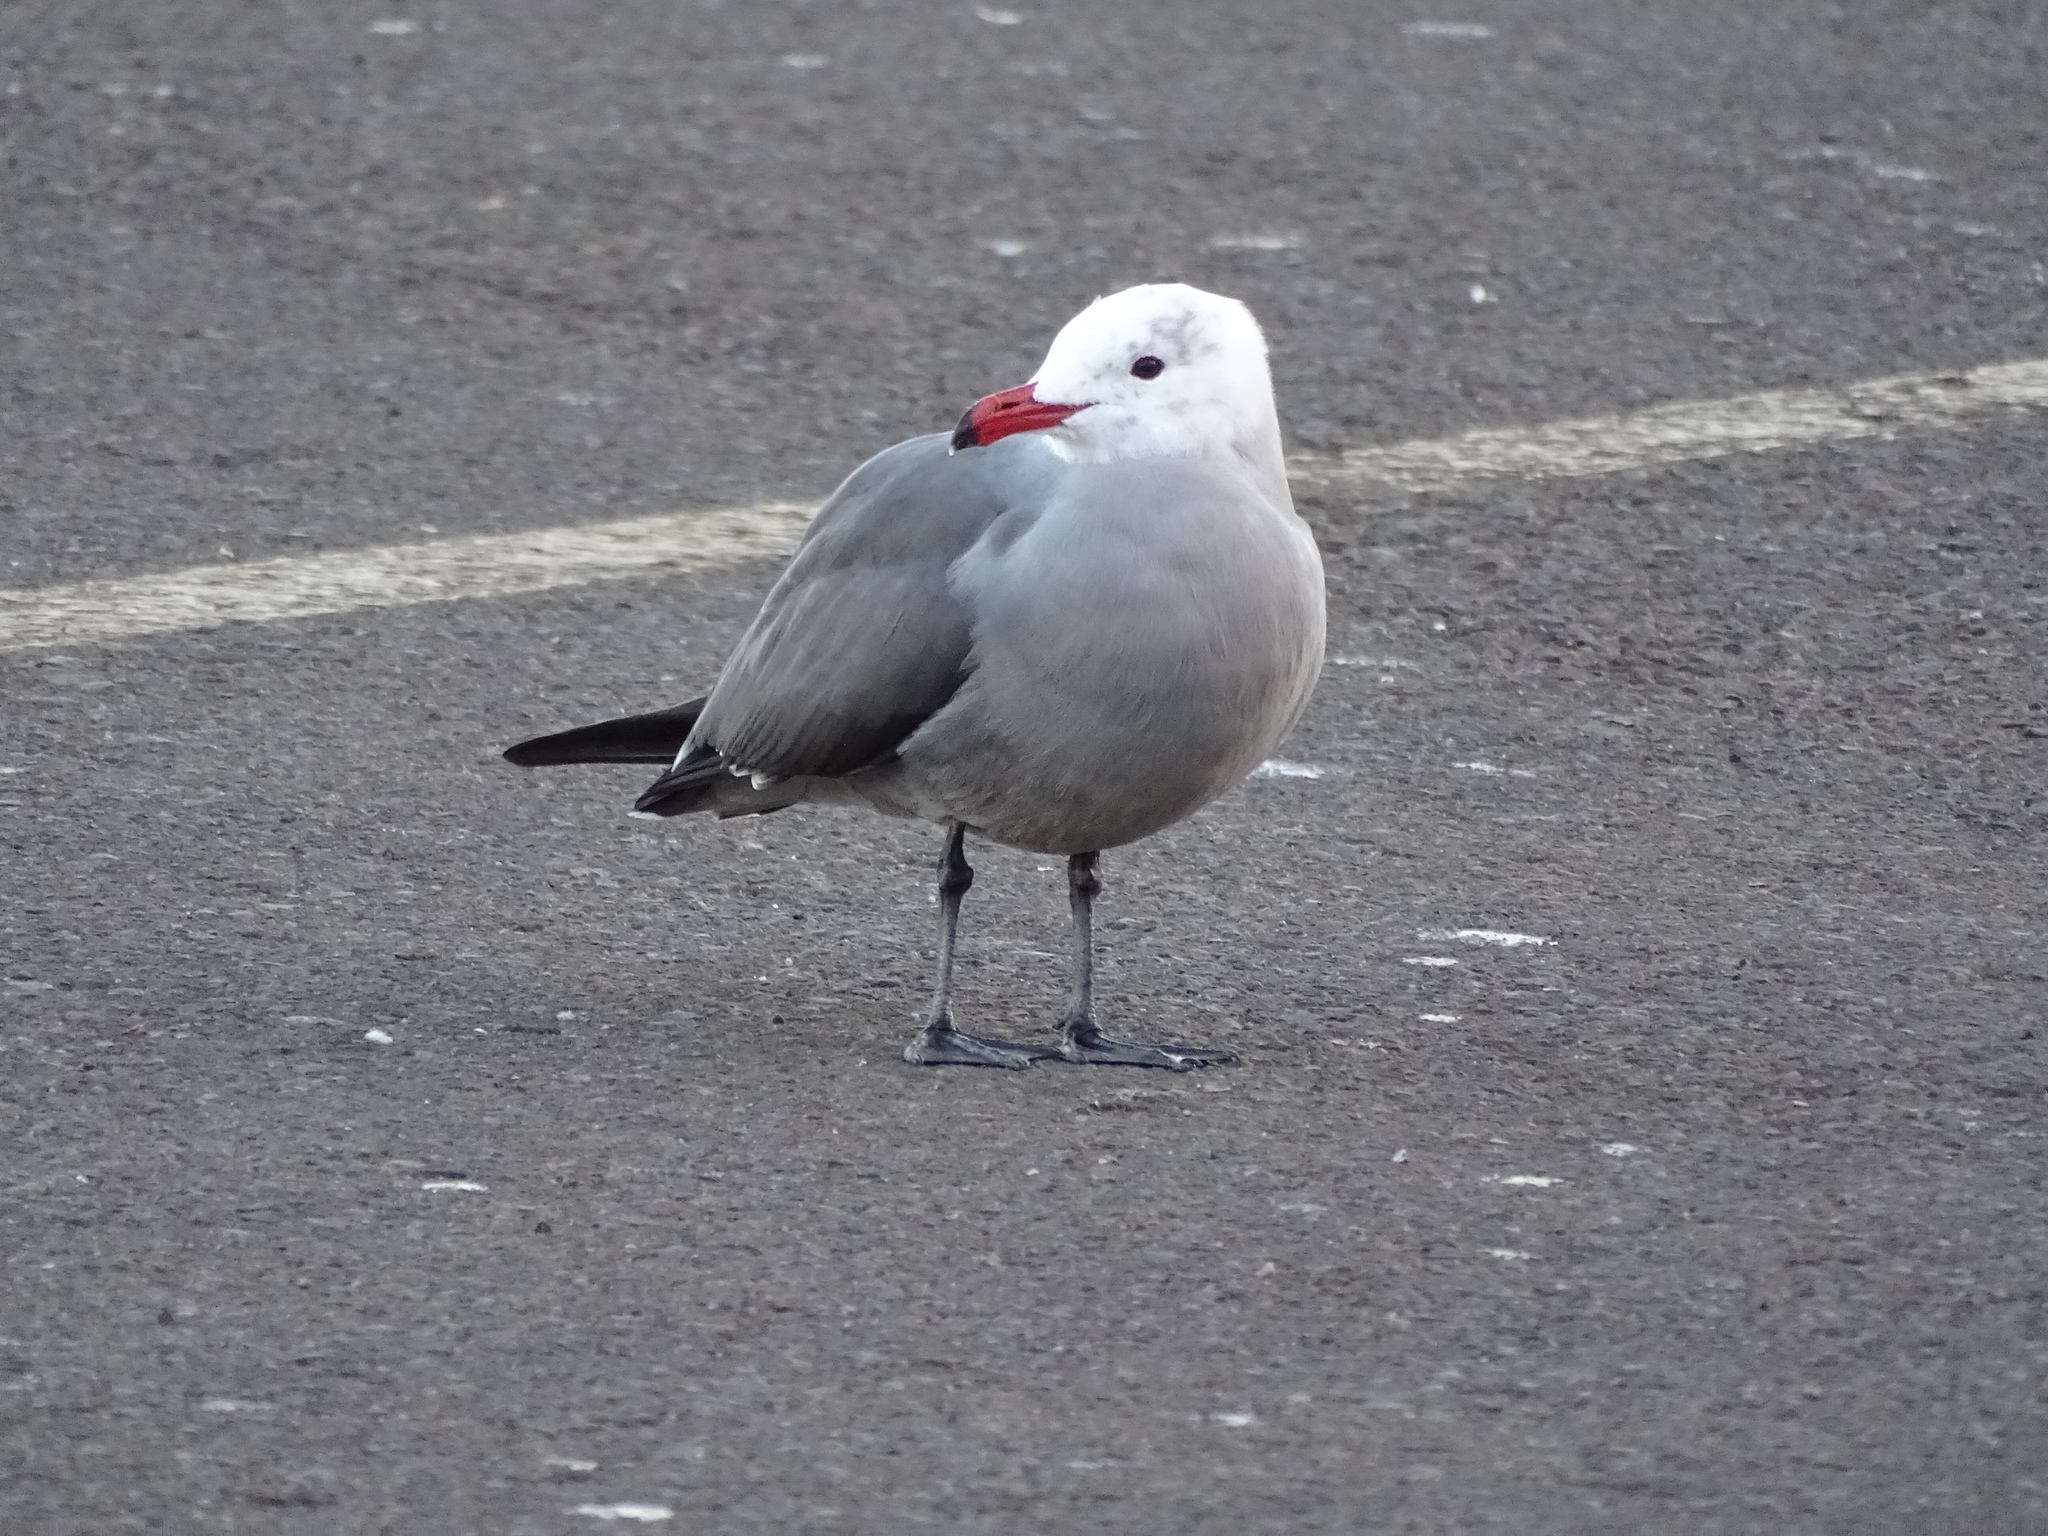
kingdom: Animalia
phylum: Chordata
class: Aves
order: Charadriiformes
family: Laridae
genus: Larus
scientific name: Larus heermanni
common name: Heermann's gull
